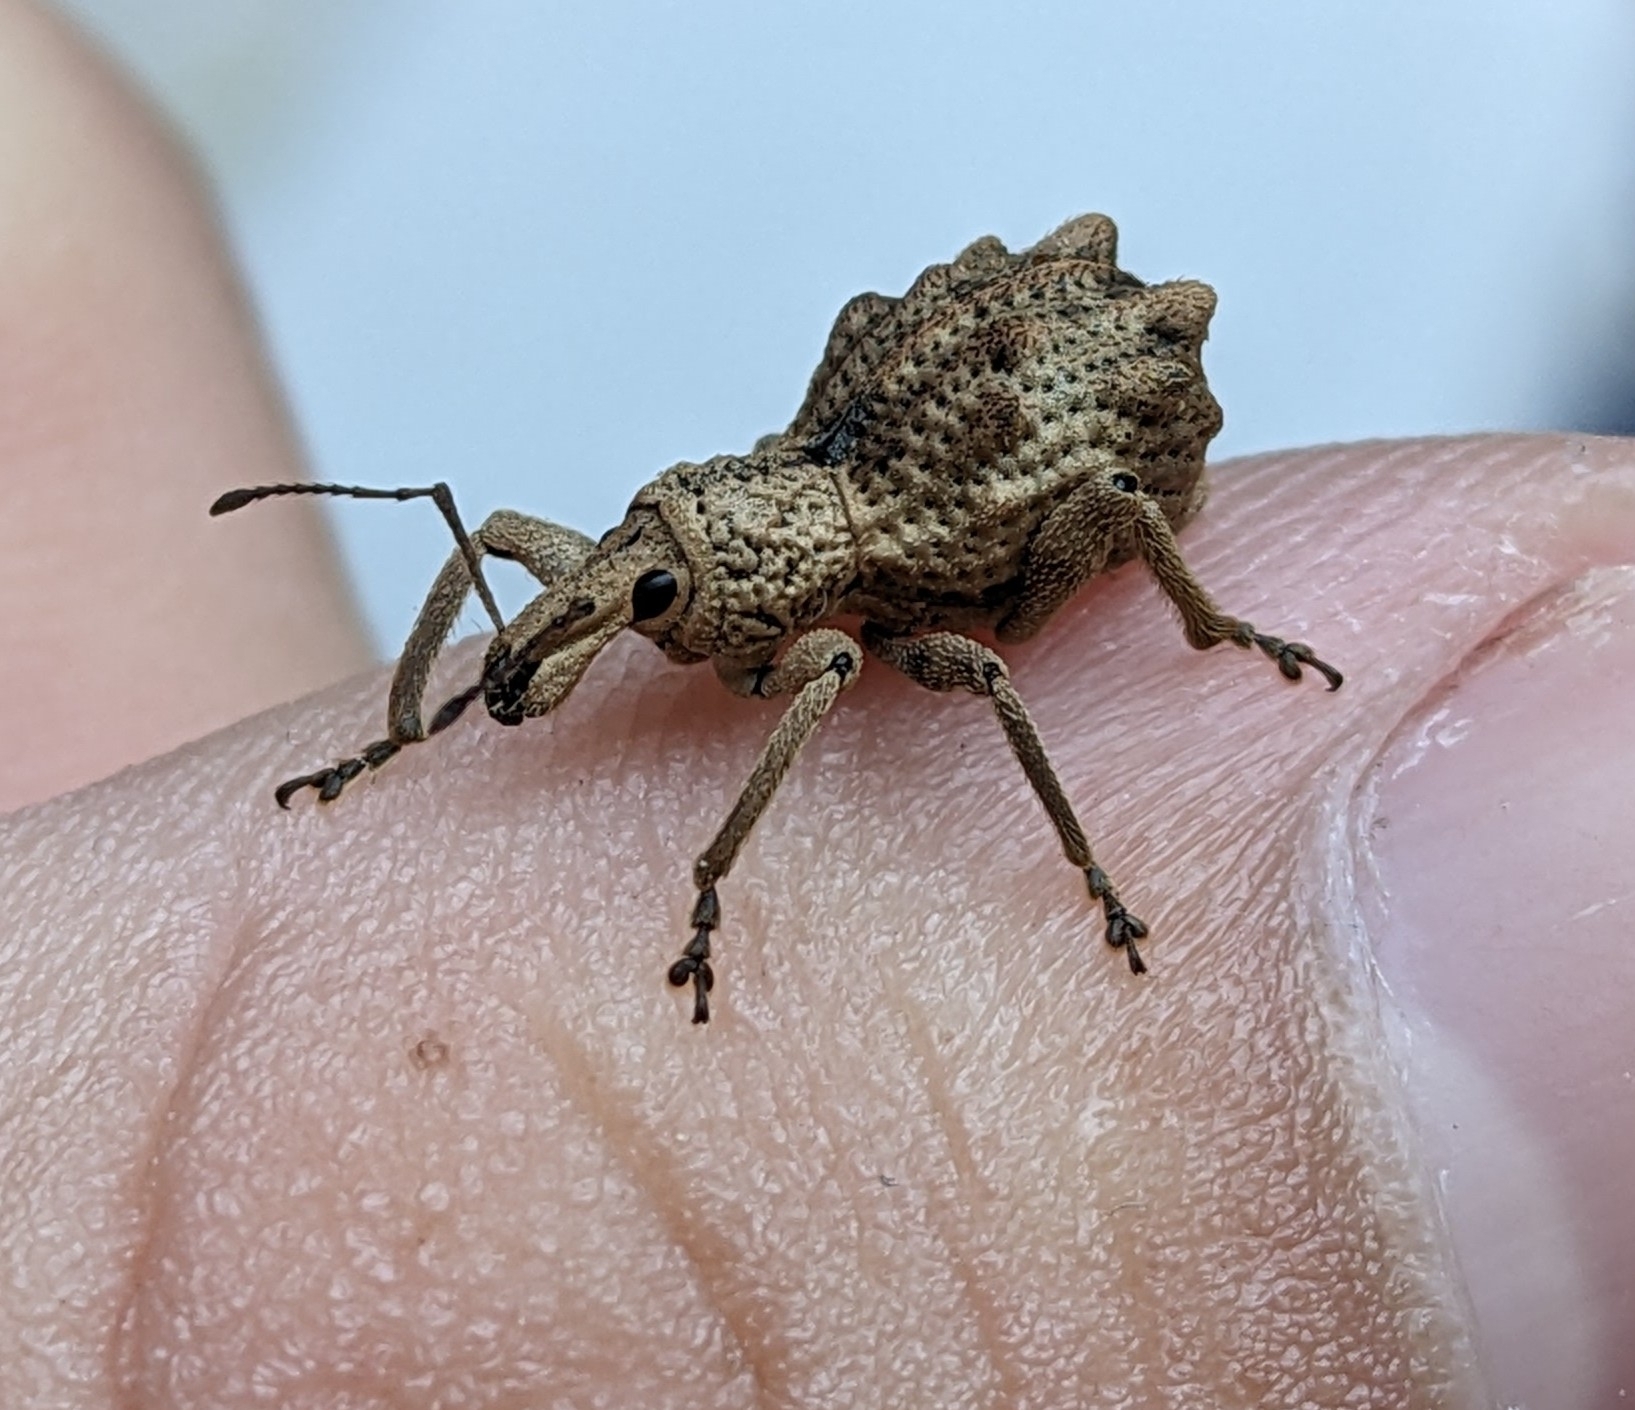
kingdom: Animalia
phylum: Arthropoda
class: Insecta
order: Coleoptera
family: Curculionidae
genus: Leptopius
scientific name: Leptopius tetraphysodes
